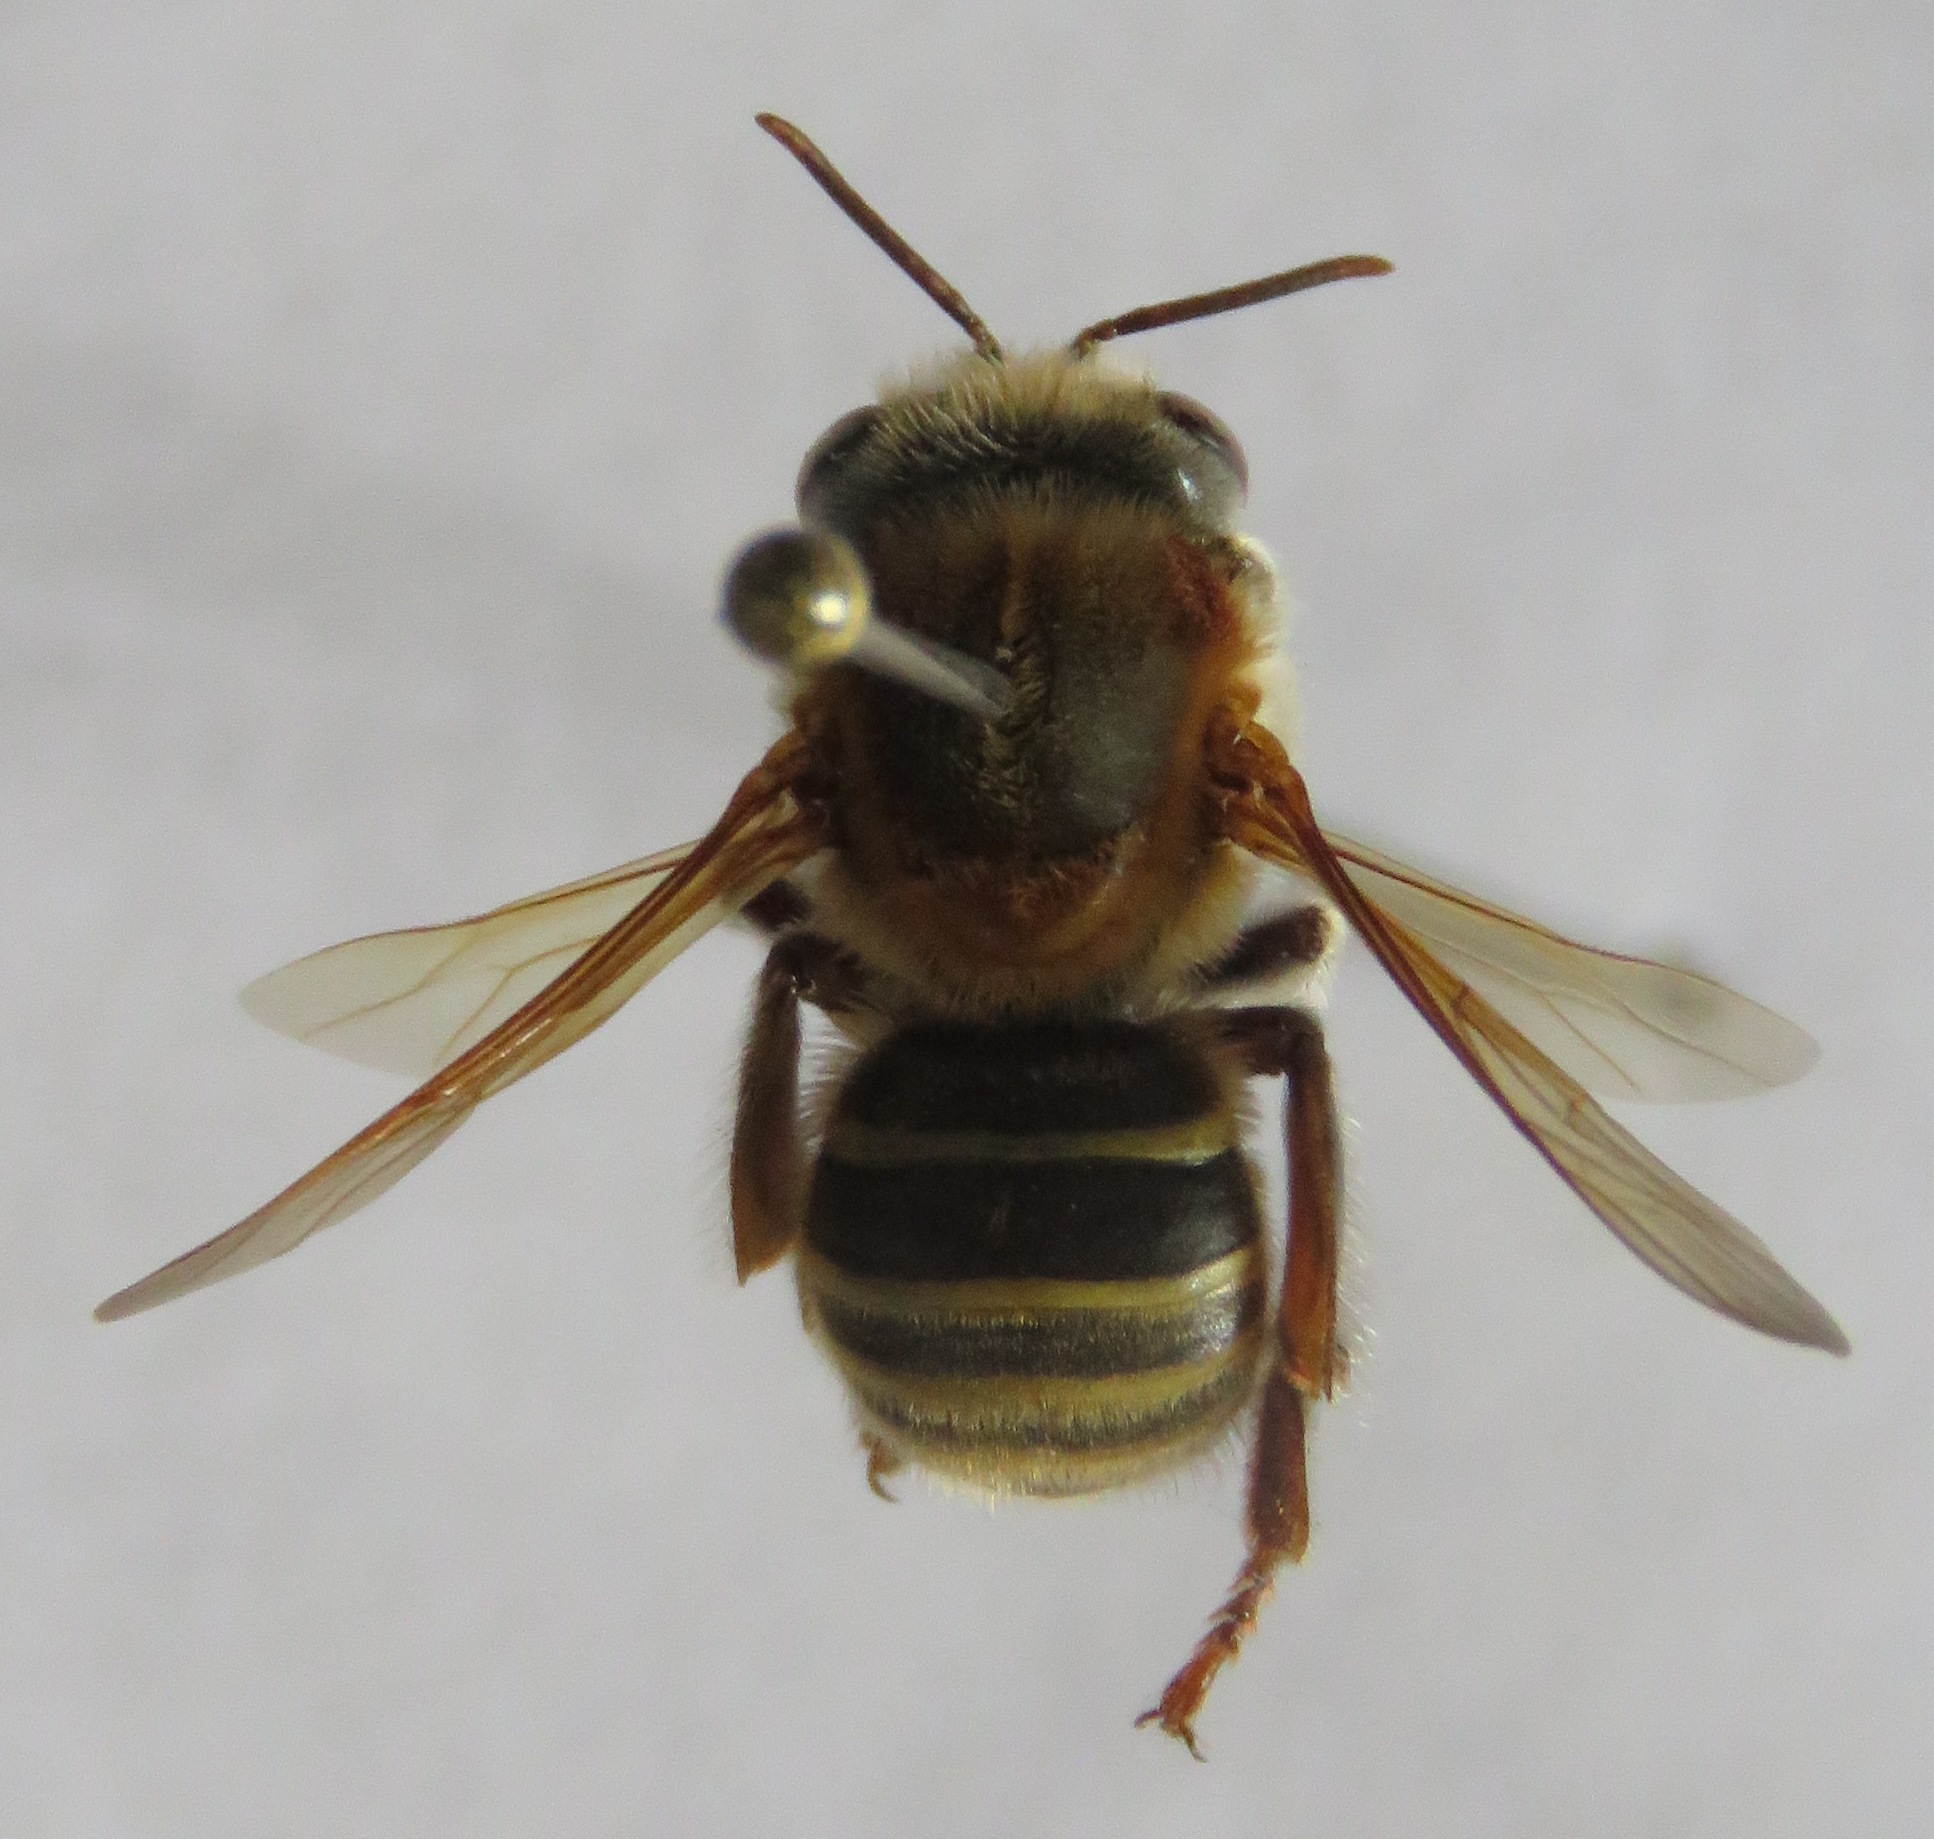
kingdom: Animalia
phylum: Arthropoda
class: Insecta
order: Hymenoptera
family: Apidae
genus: Melipona
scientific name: Melipona beecheii
